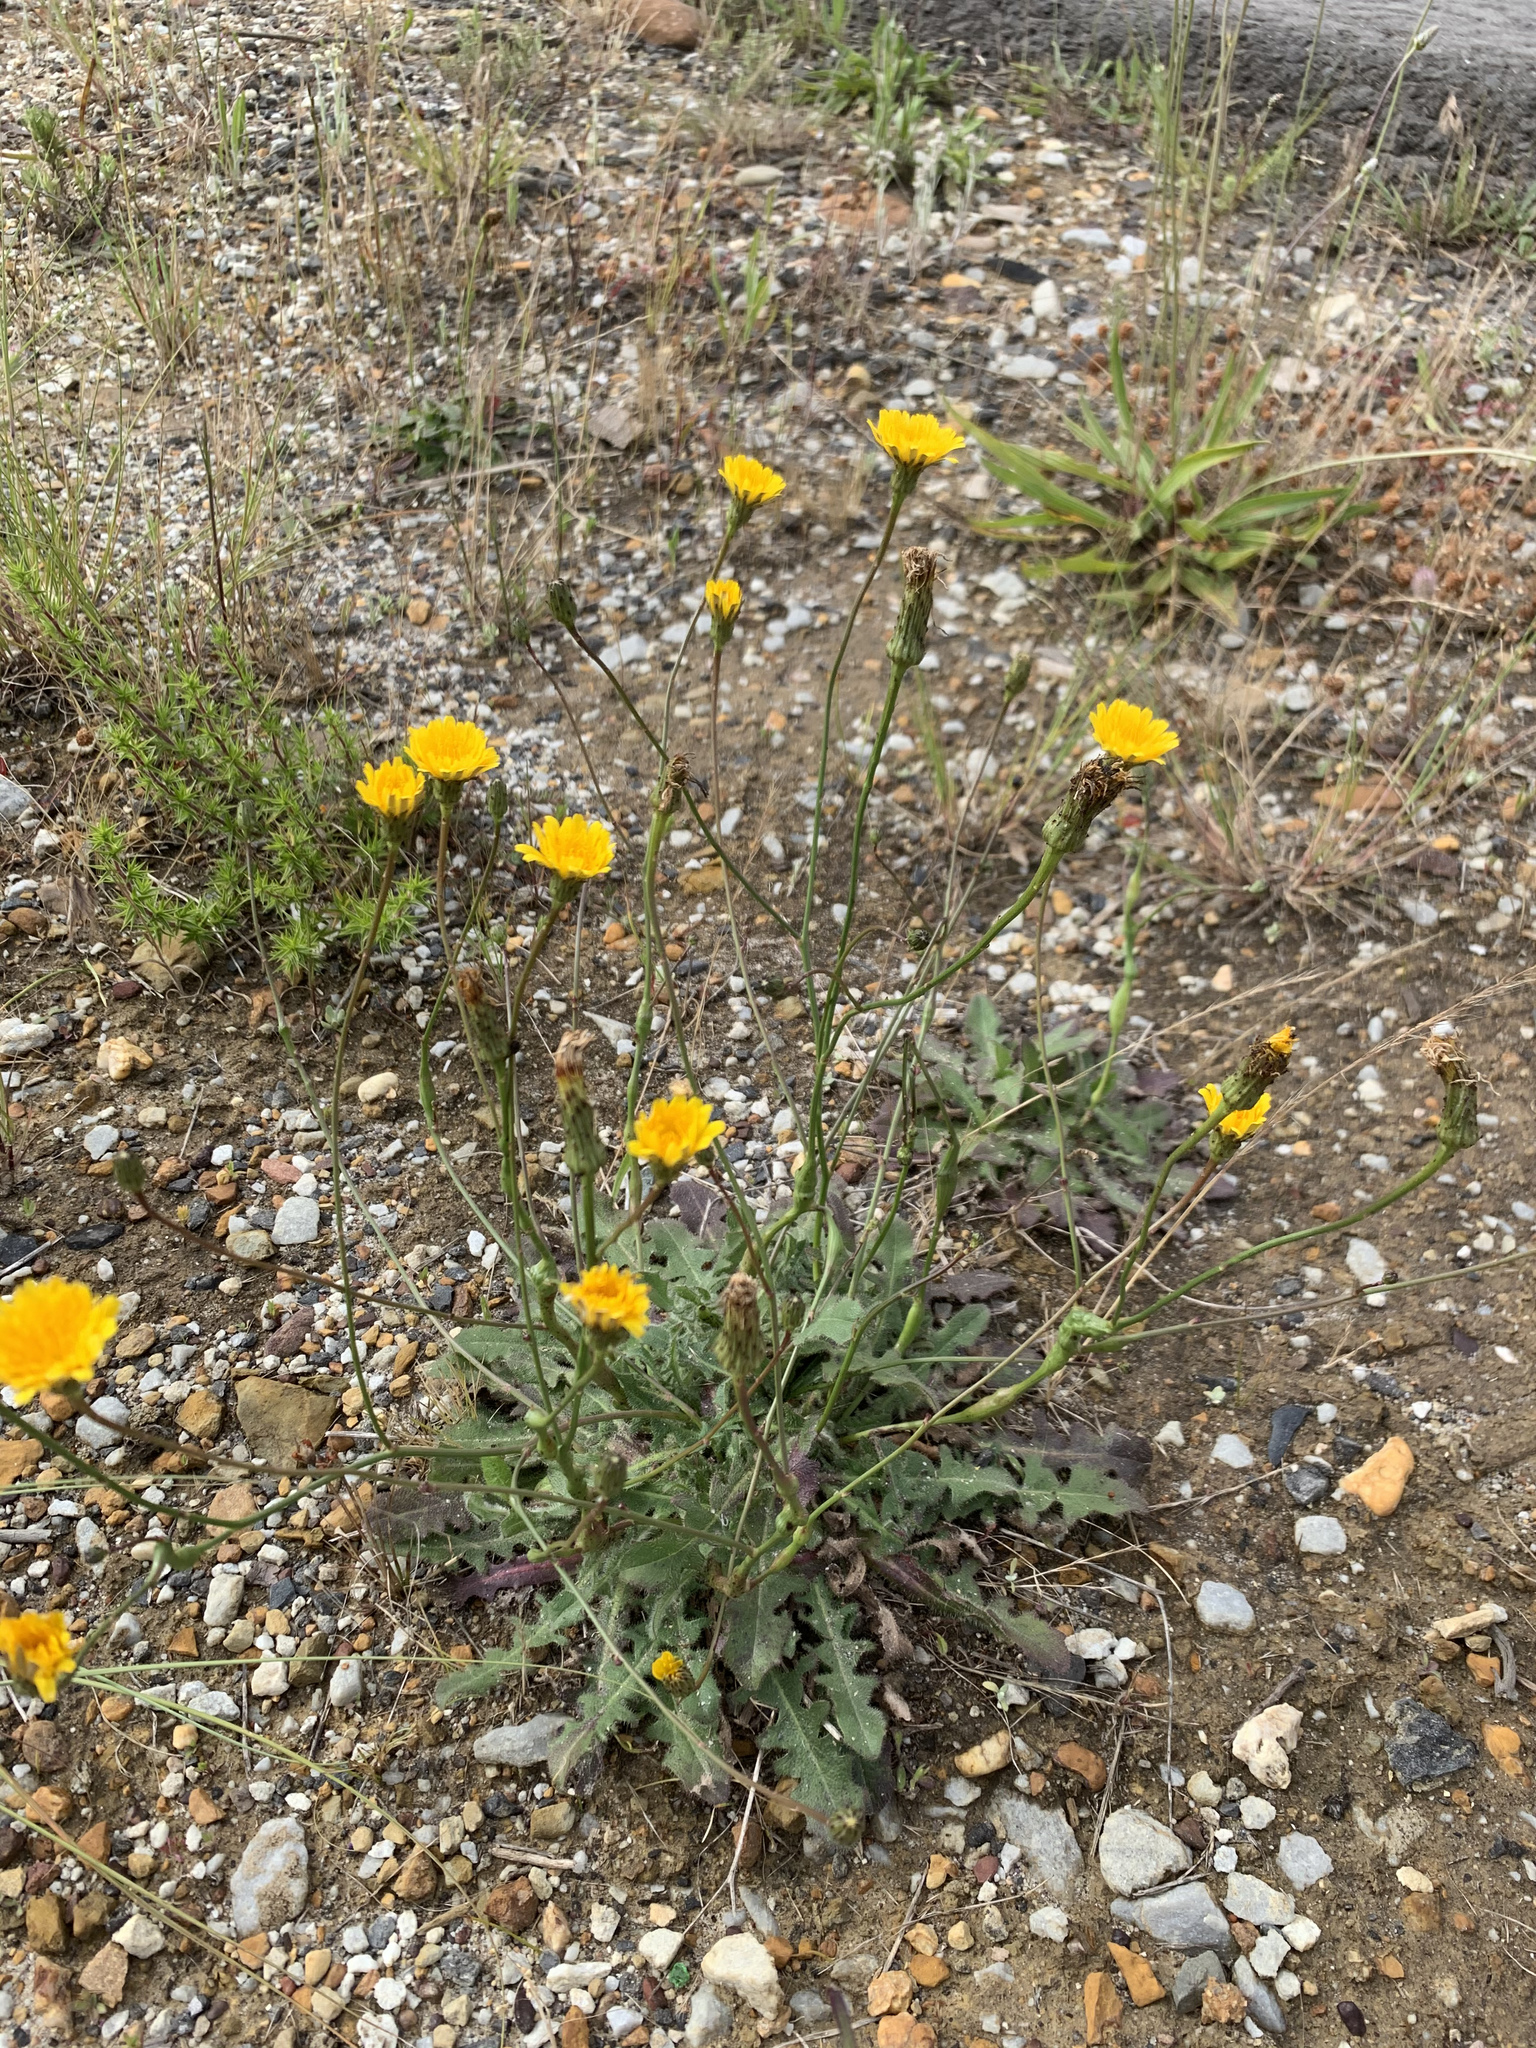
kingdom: Plantae
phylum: Tracheophyta
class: Magnoliopsida
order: Asterales
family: Asteraceae
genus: Hypochaeris
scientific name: Hypochaeris radicata
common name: Flatweed
